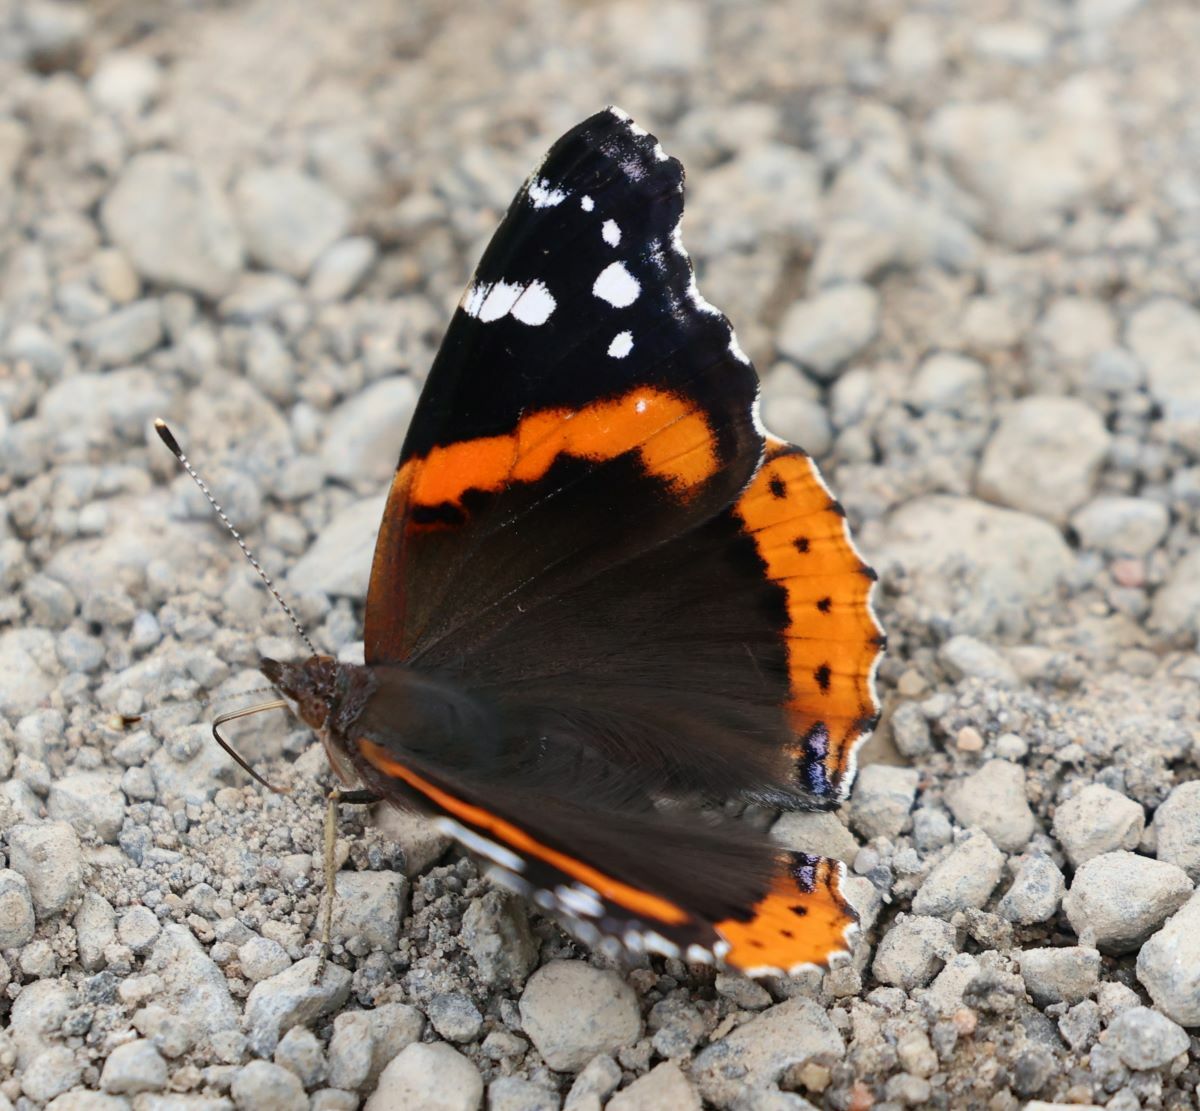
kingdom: Animalia
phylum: Arthropoda
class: Insecta
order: Lepidoptera
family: Nymphalidae
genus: Vanessa
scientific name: Vanessa atalanta
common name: Red admiral
